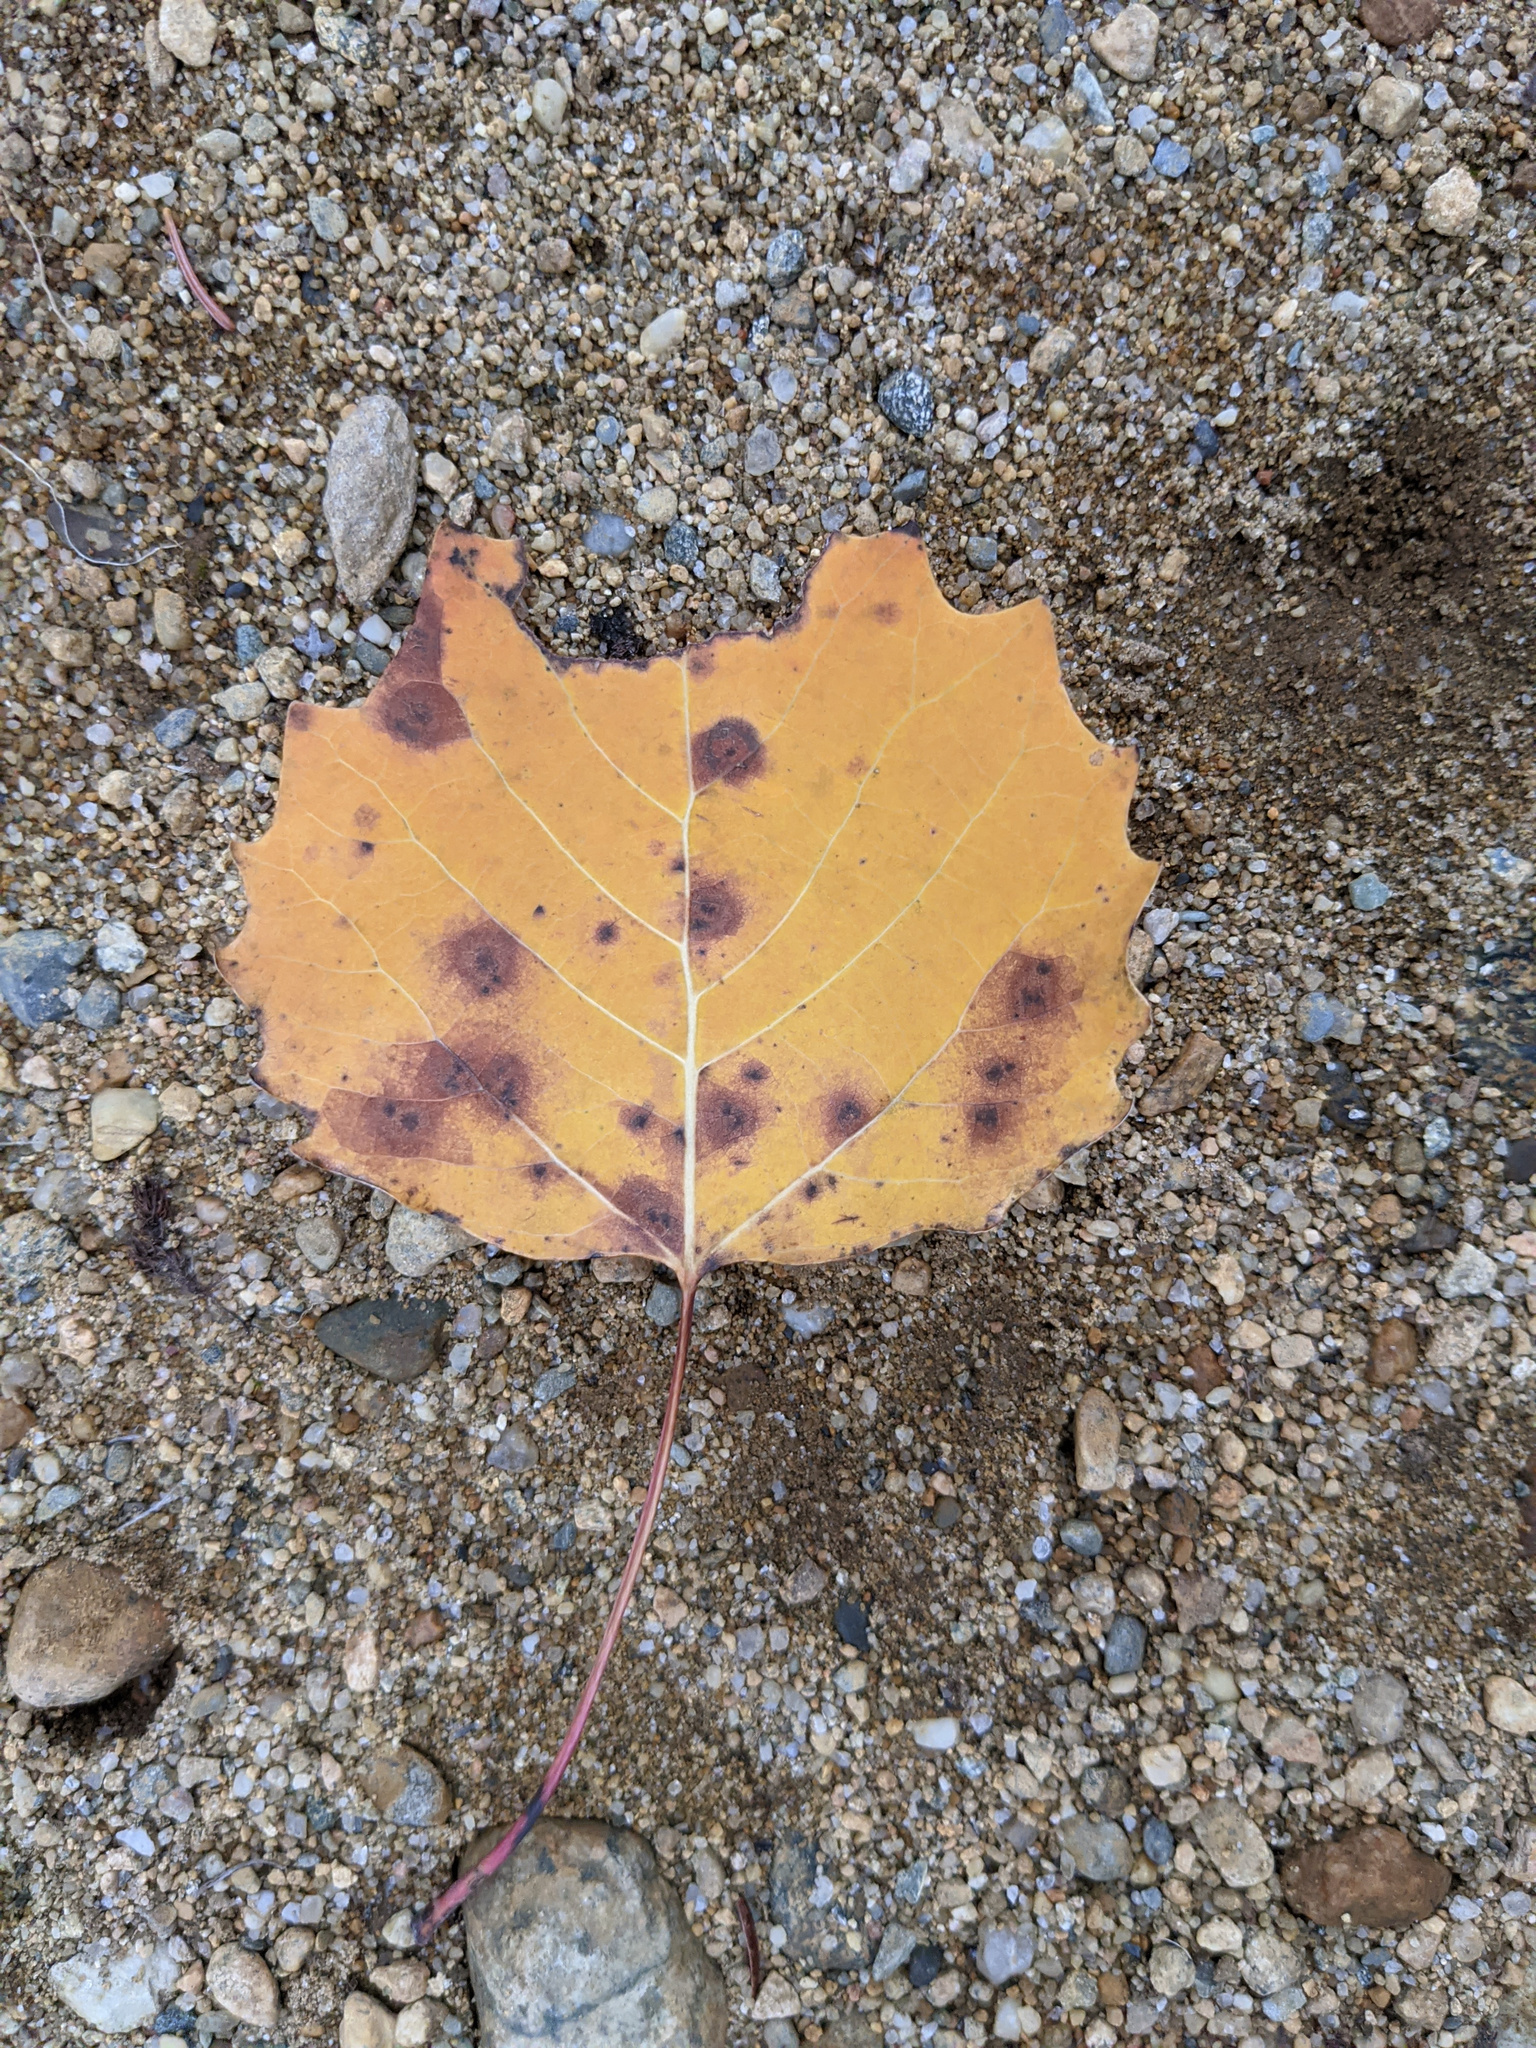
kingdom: Plantae
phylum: Tracheophyta
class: Magnoliopsida
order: Malpighiales
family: Salicaceae
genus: Populus
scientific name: Populus grandidentata
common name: Bigtooth aspen
